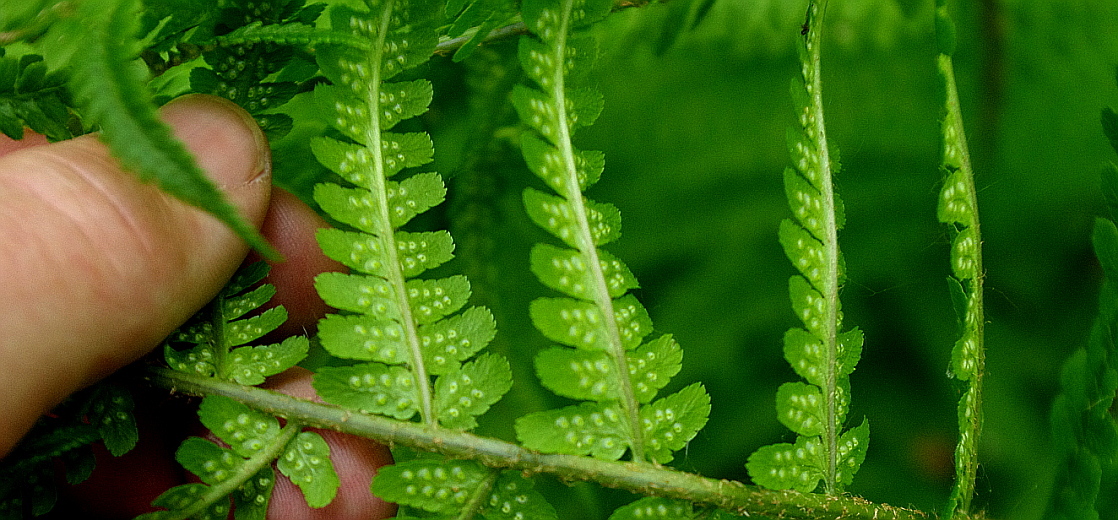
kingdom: Plantae
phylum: Tracheophyta
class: Polypodiopsida
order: Polypodiales
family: Dryopteridaceae
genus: Dryopteris
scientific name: Dryopteris filix-mas
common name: Male fern
